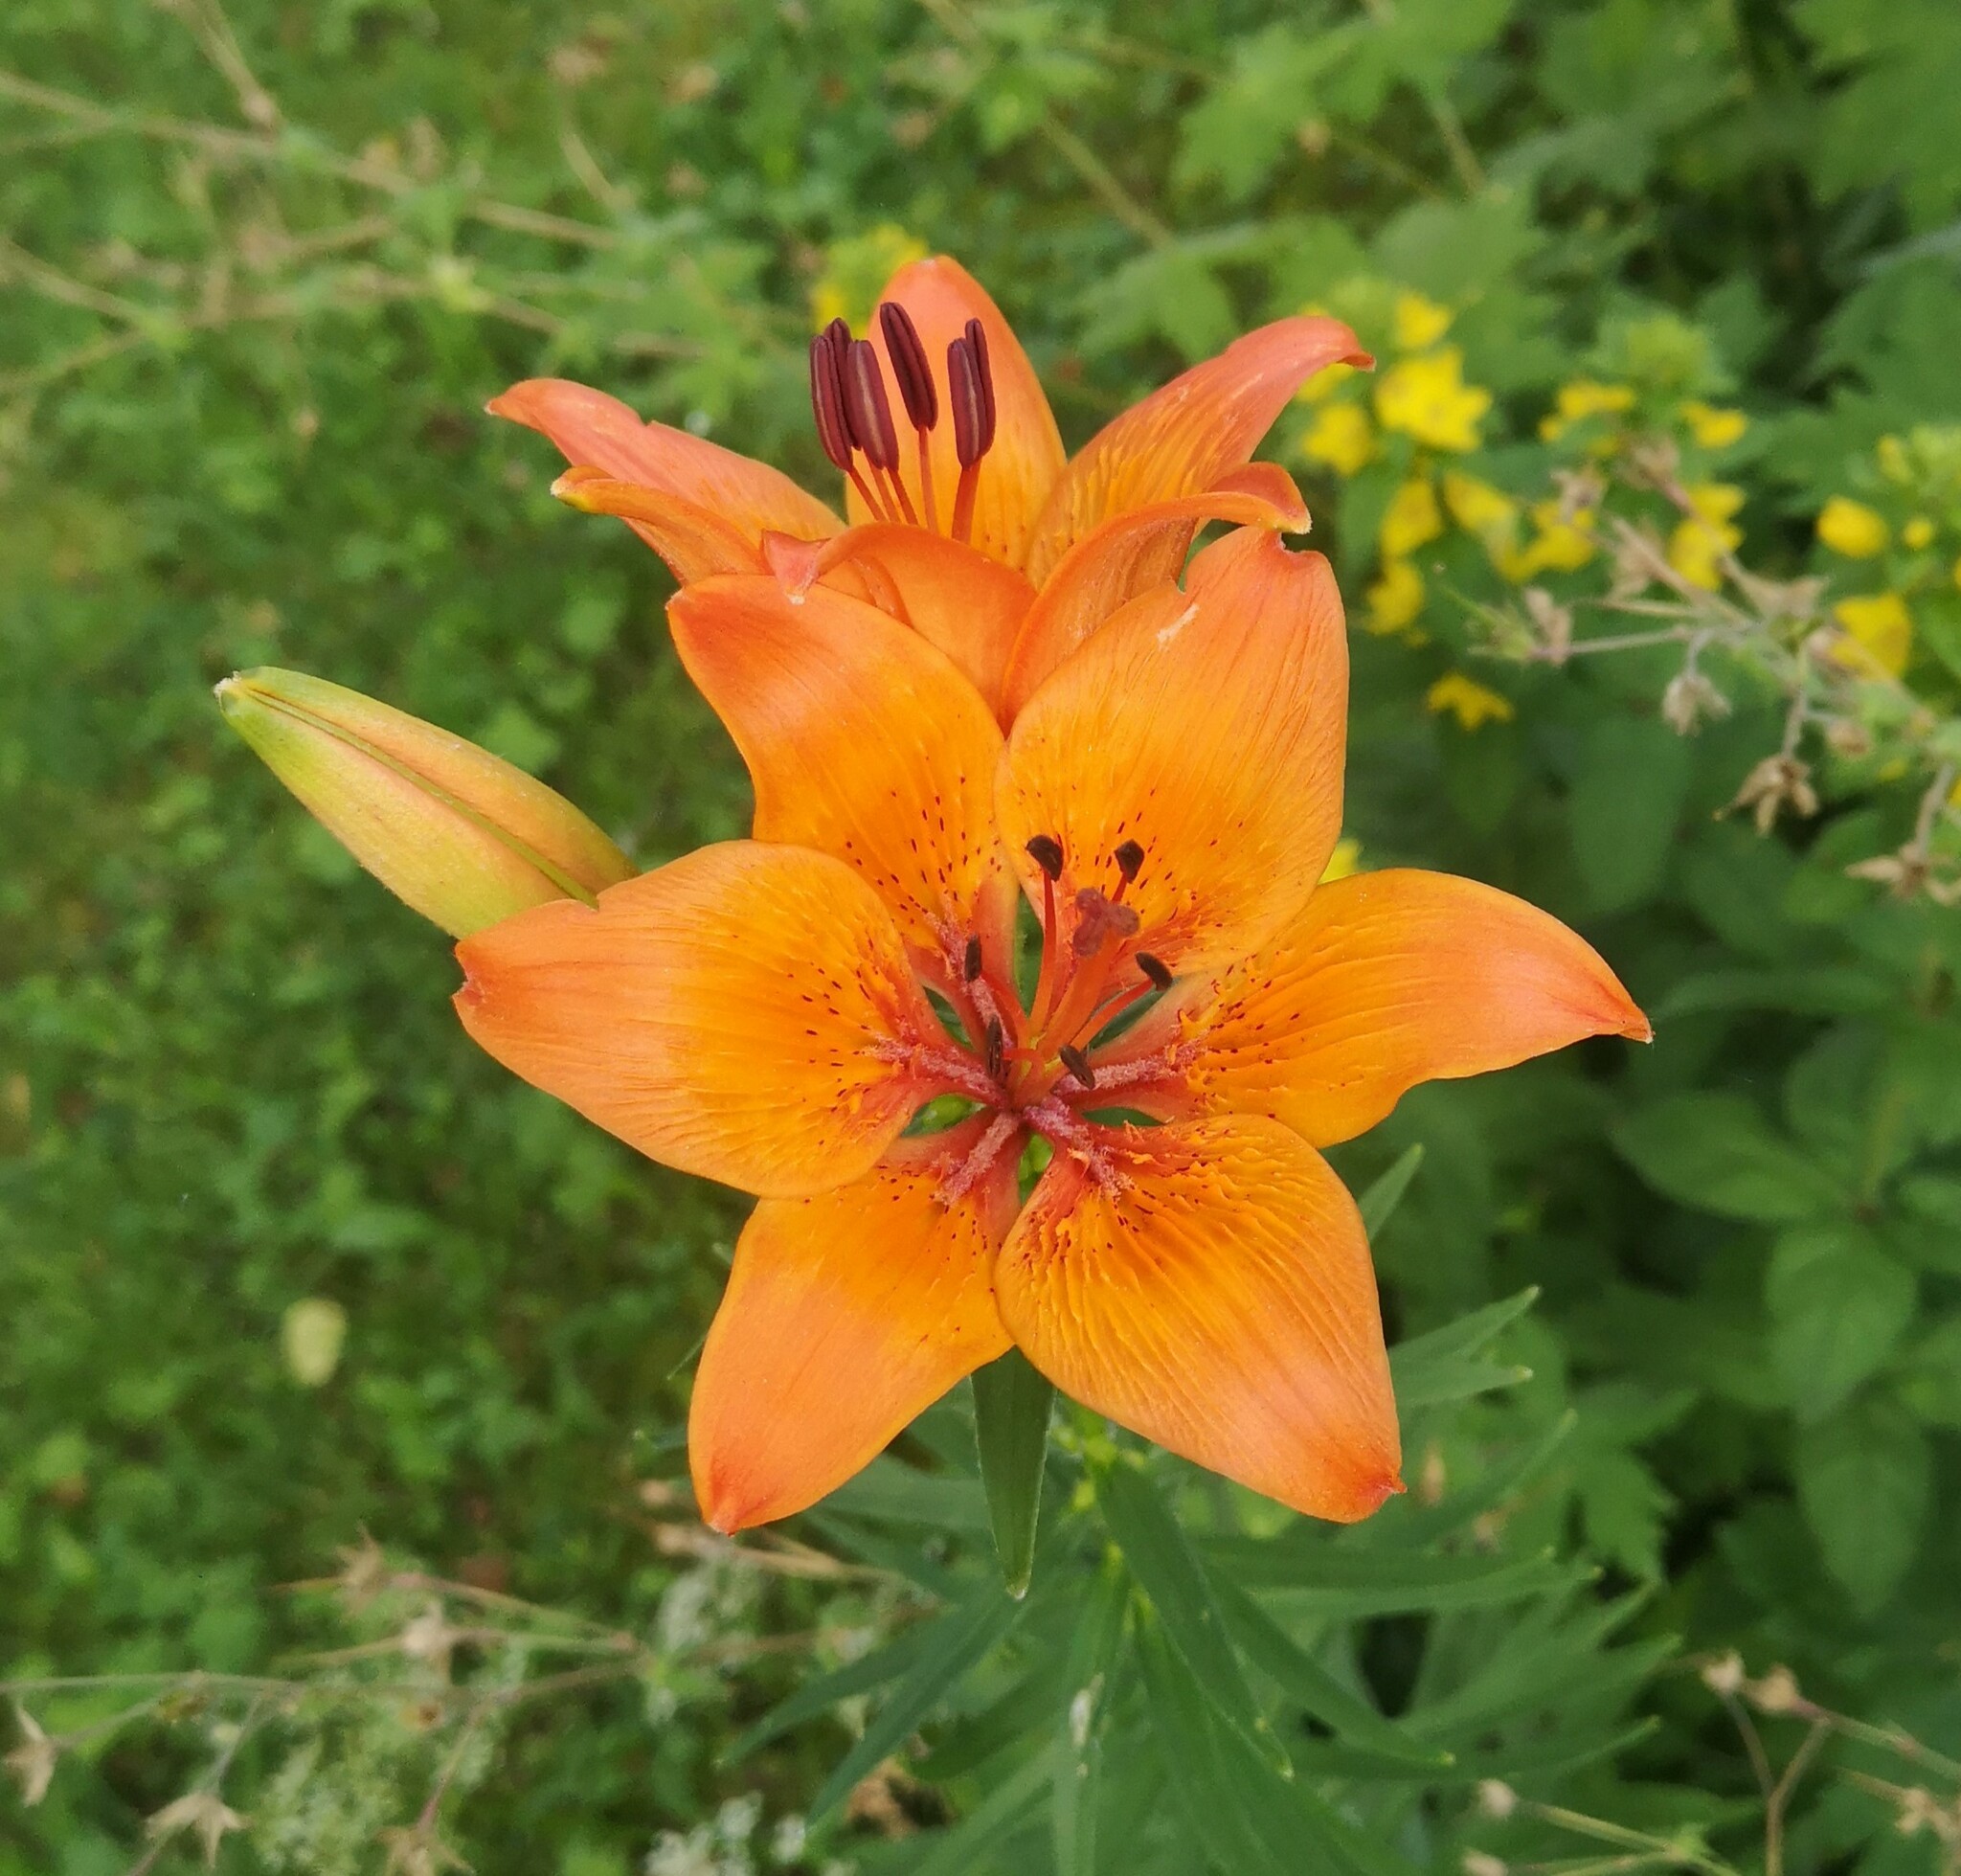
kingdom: Plantae
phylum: Tracheophyta
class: Liliopsida
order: Liliales
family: Liliaceae
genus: Lilium
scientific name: Lilium bulbiferum
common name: Orange lily
